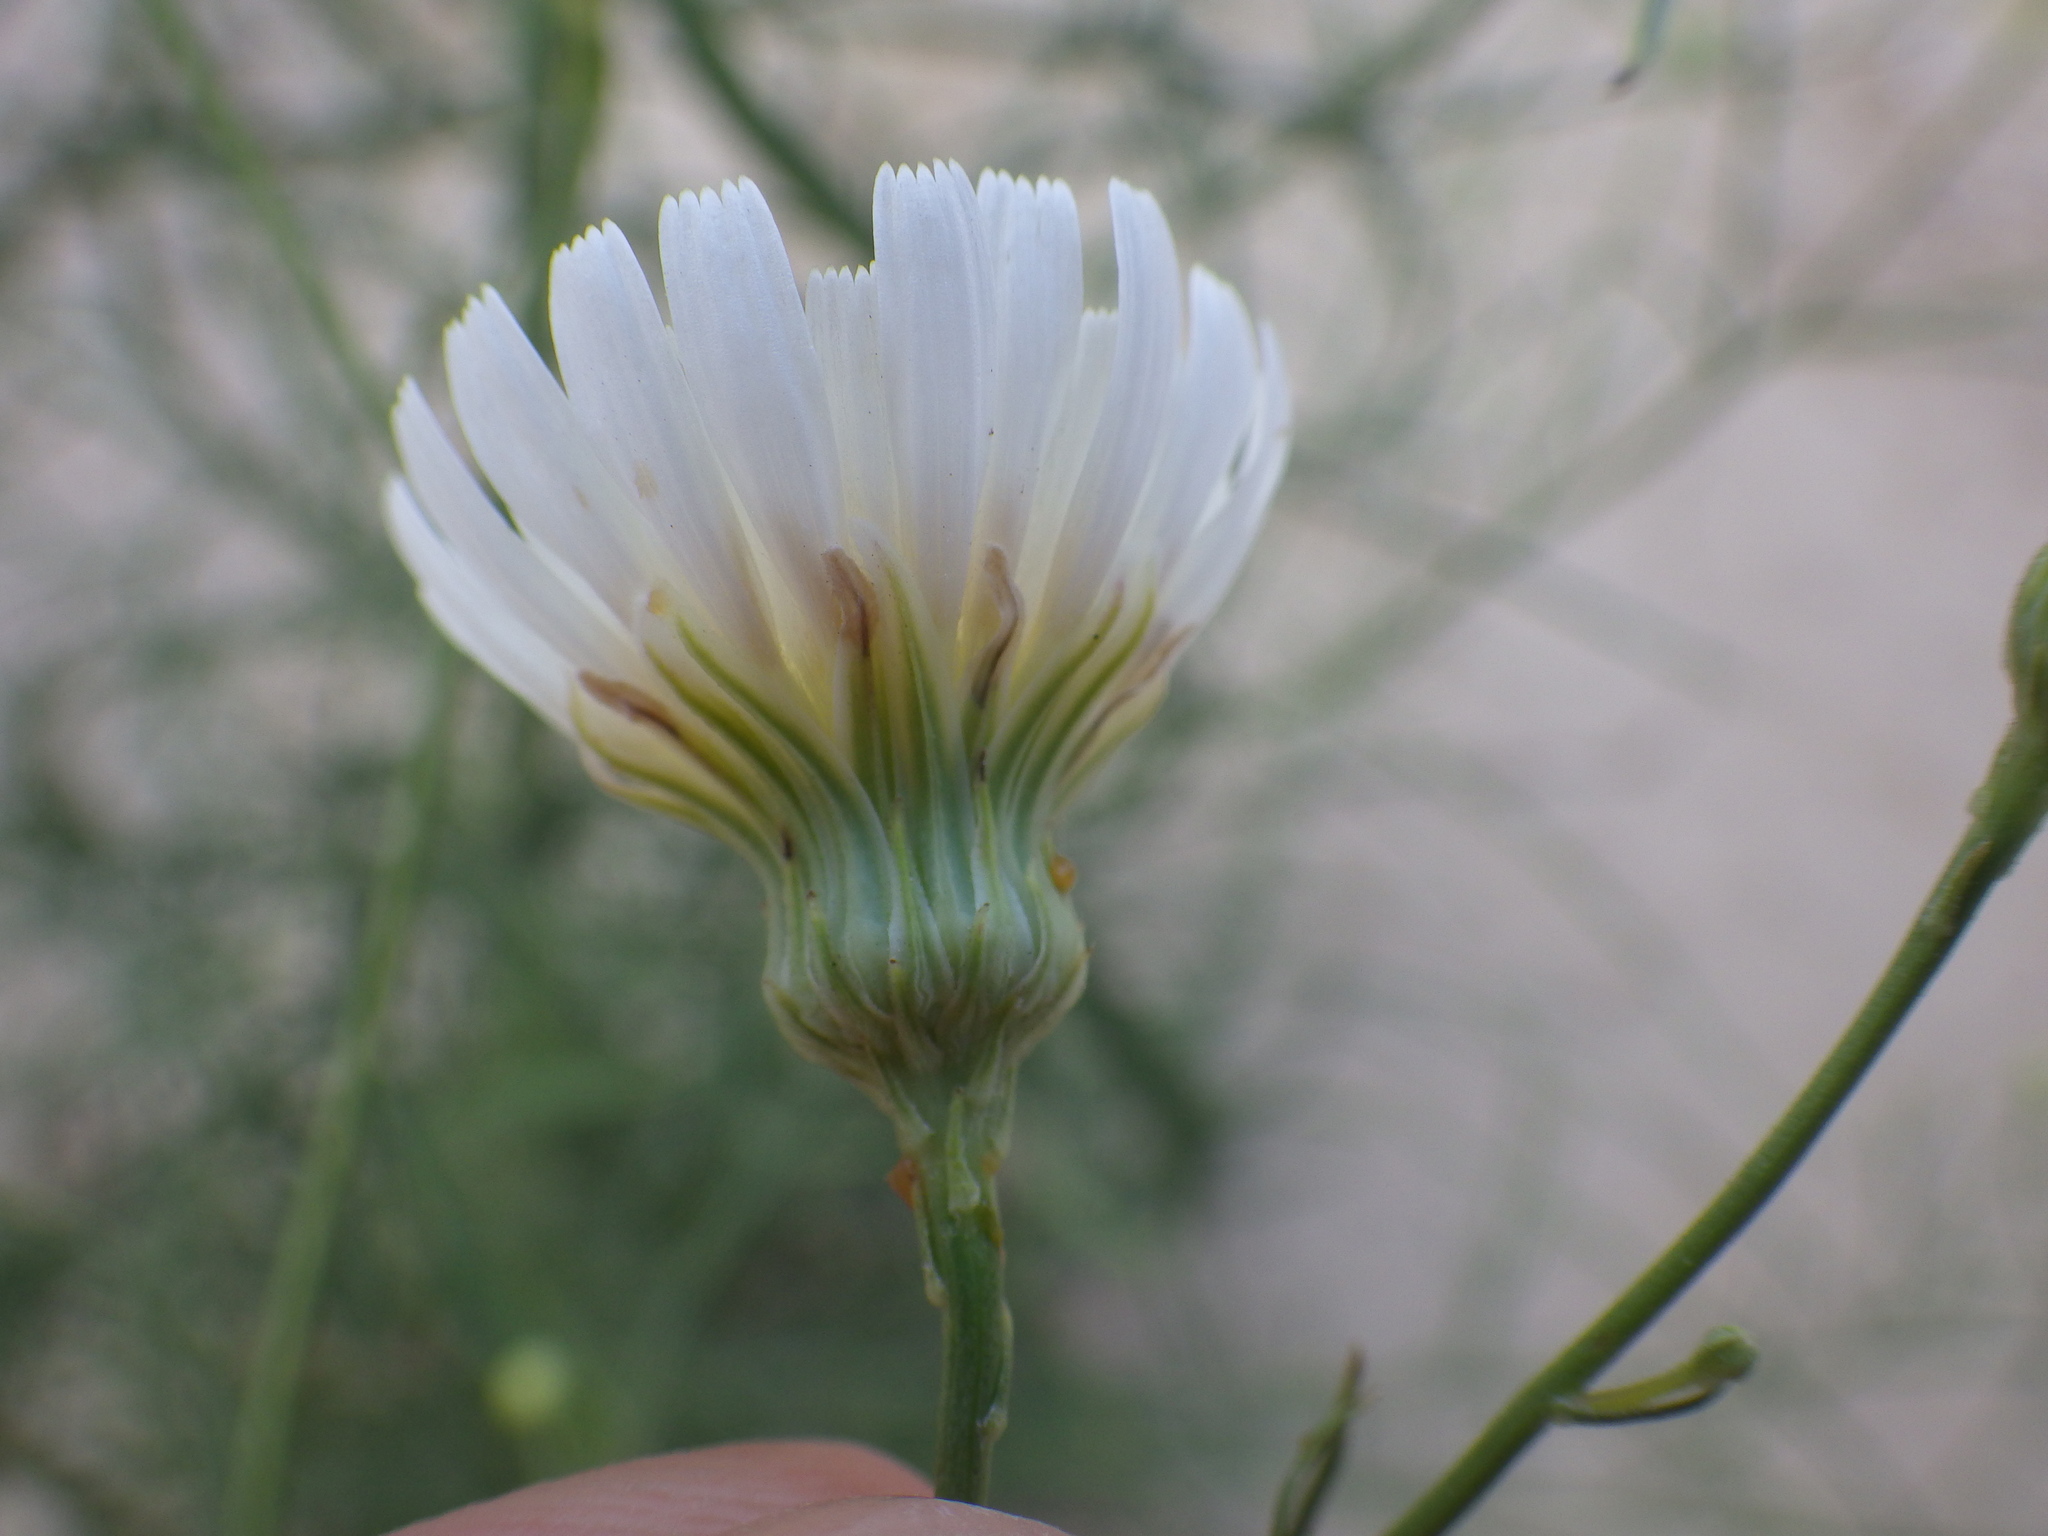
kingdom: Plantae
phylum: Tracheophyta
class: Magnoliopsida
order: Asterales
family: Asteraceae
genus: Malacothrix
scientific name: Malacothrix saxatilis
